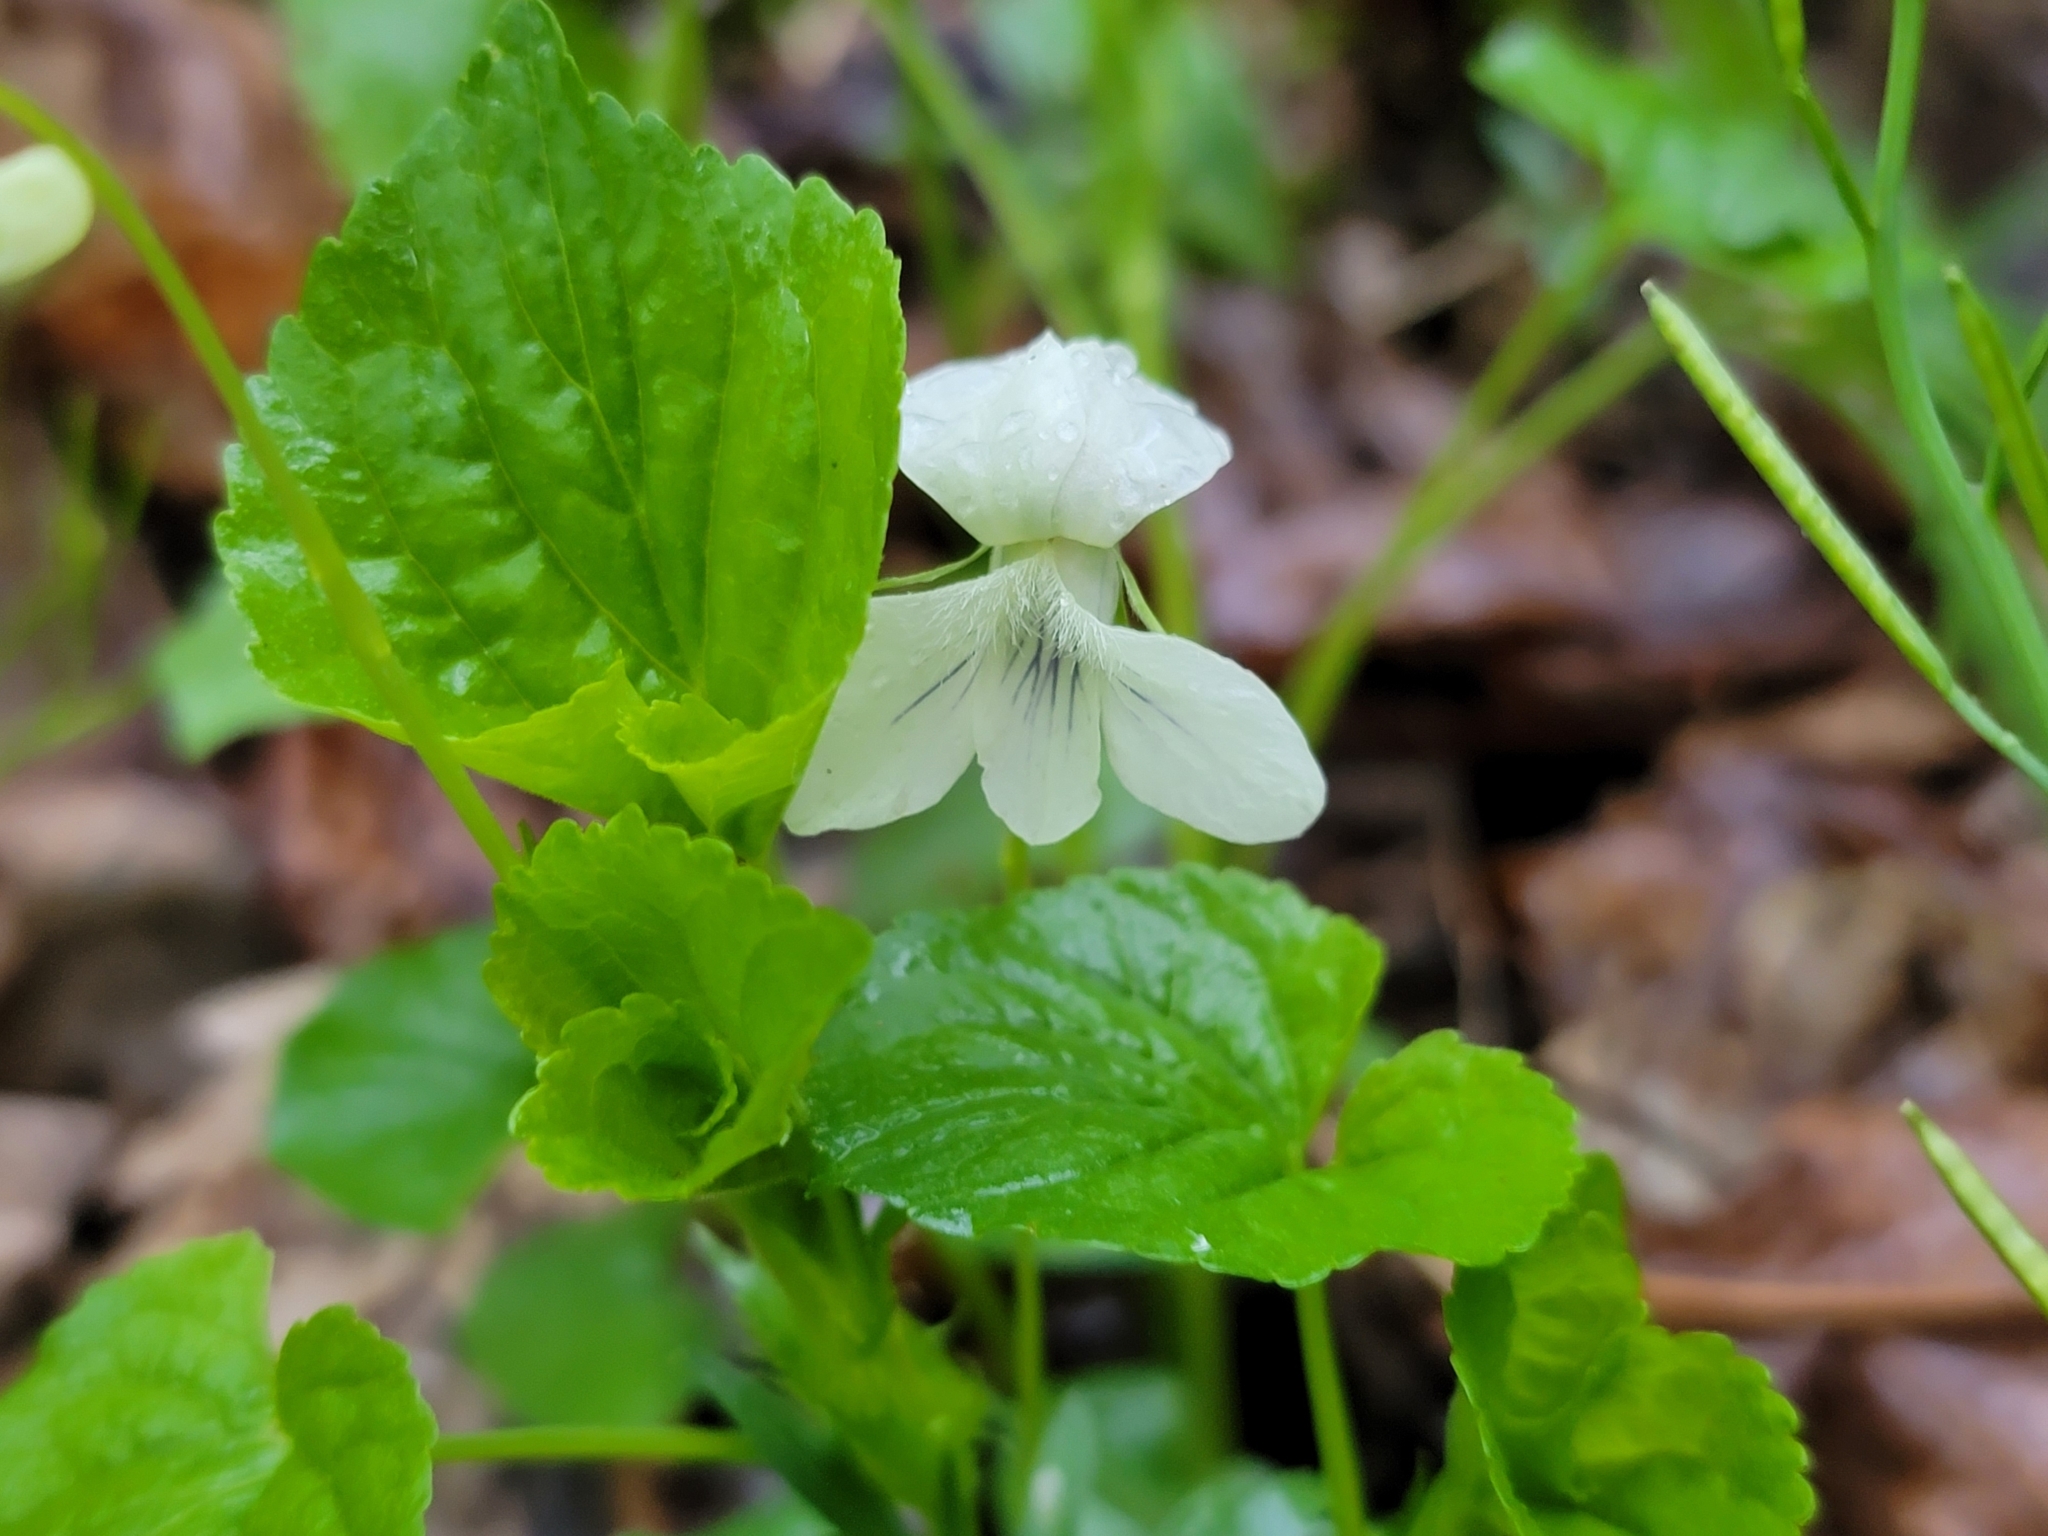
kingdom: Plantae
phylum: Tracheophyta
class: Magnoliopsida
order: Malpighiales
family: Violaceae
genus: Viola
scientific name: Viola striata
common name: Cream violet
